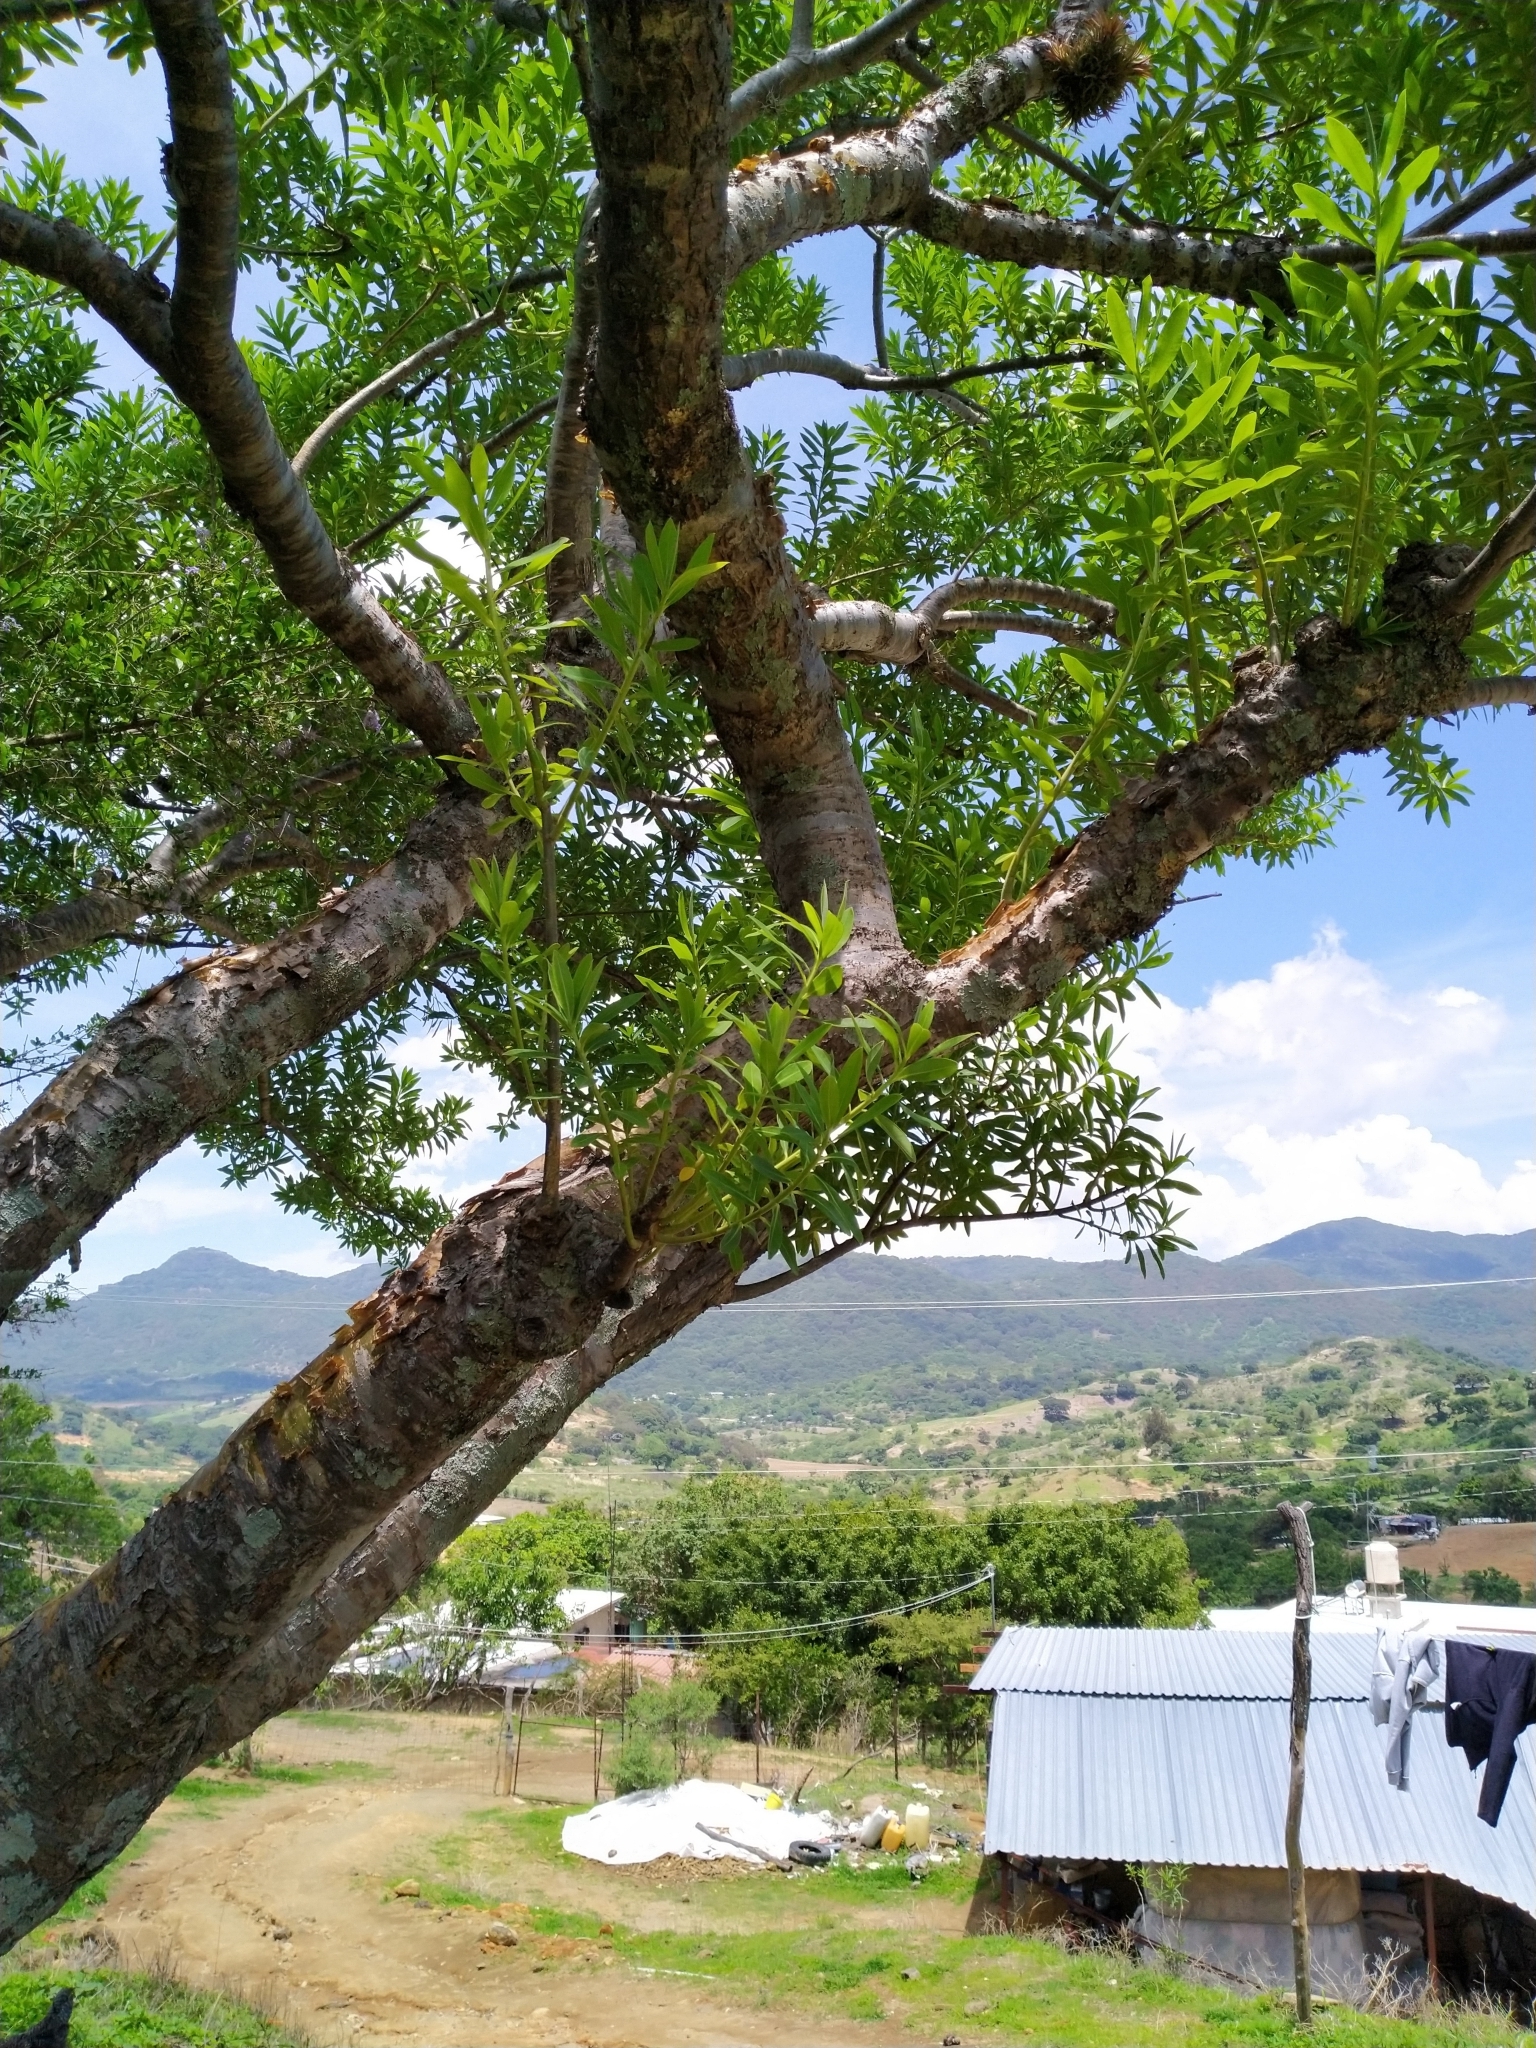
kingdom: Plantae
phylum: Tracheophyta
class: Magnoliopsida
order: Malpighiales
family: Euphorbiaceae
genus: Euphorbia
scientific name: Euphorbia tanquahuete
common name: Leche maria
